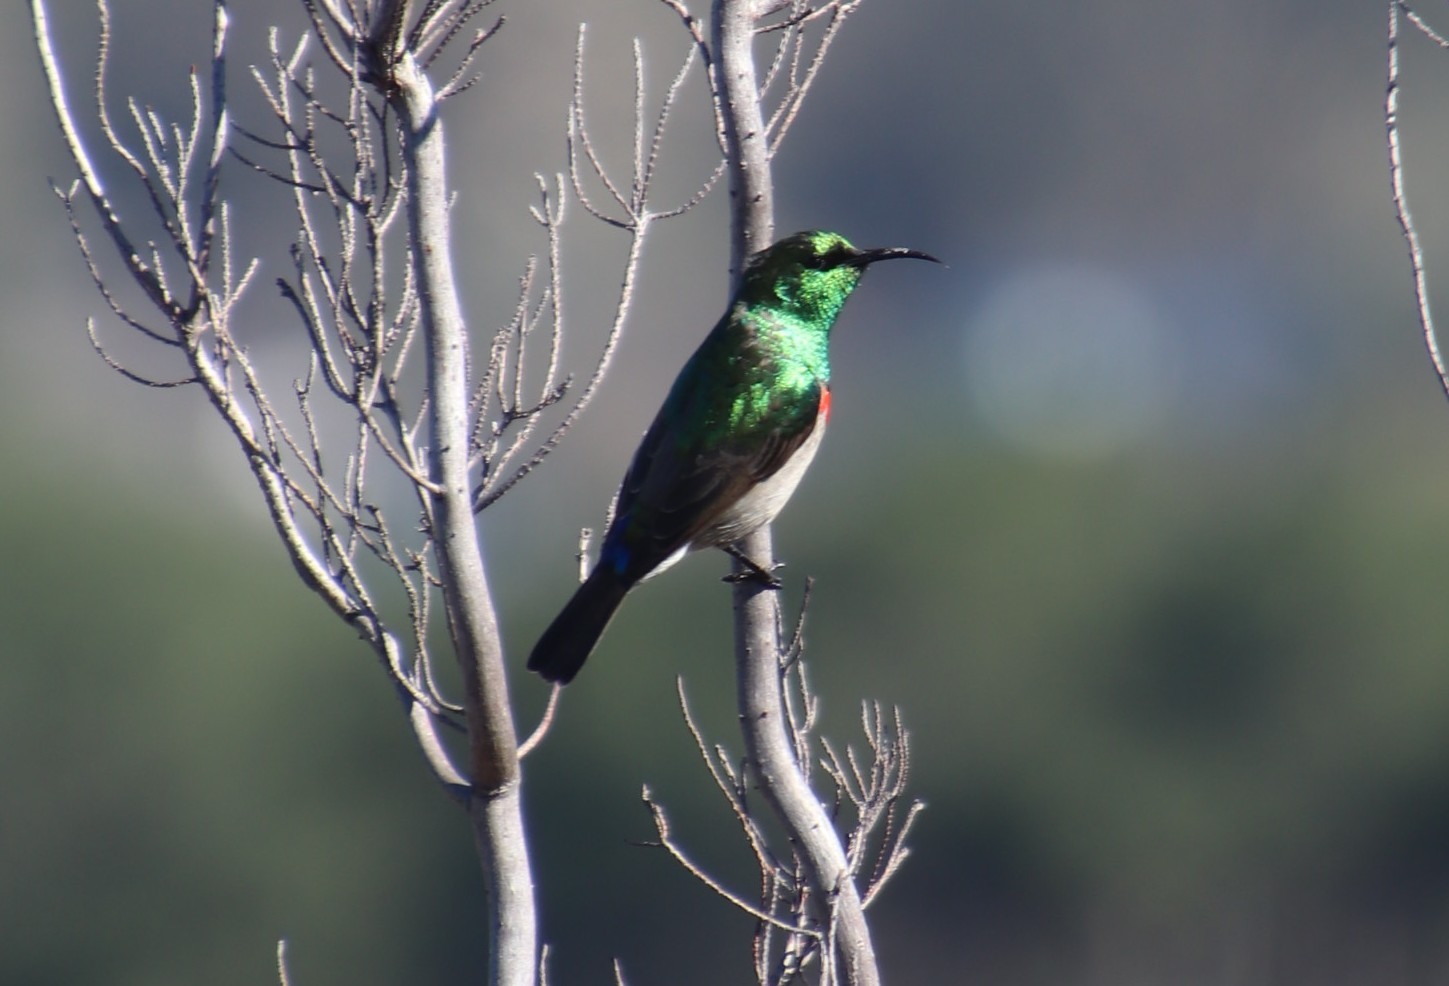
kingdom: Animalia
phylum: Chordata
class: Aves
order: Passeriformes
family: Nectariniidae
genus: Cinnyris
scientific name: Cinnyris chalybeus
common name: Southern double-collared sunbird
